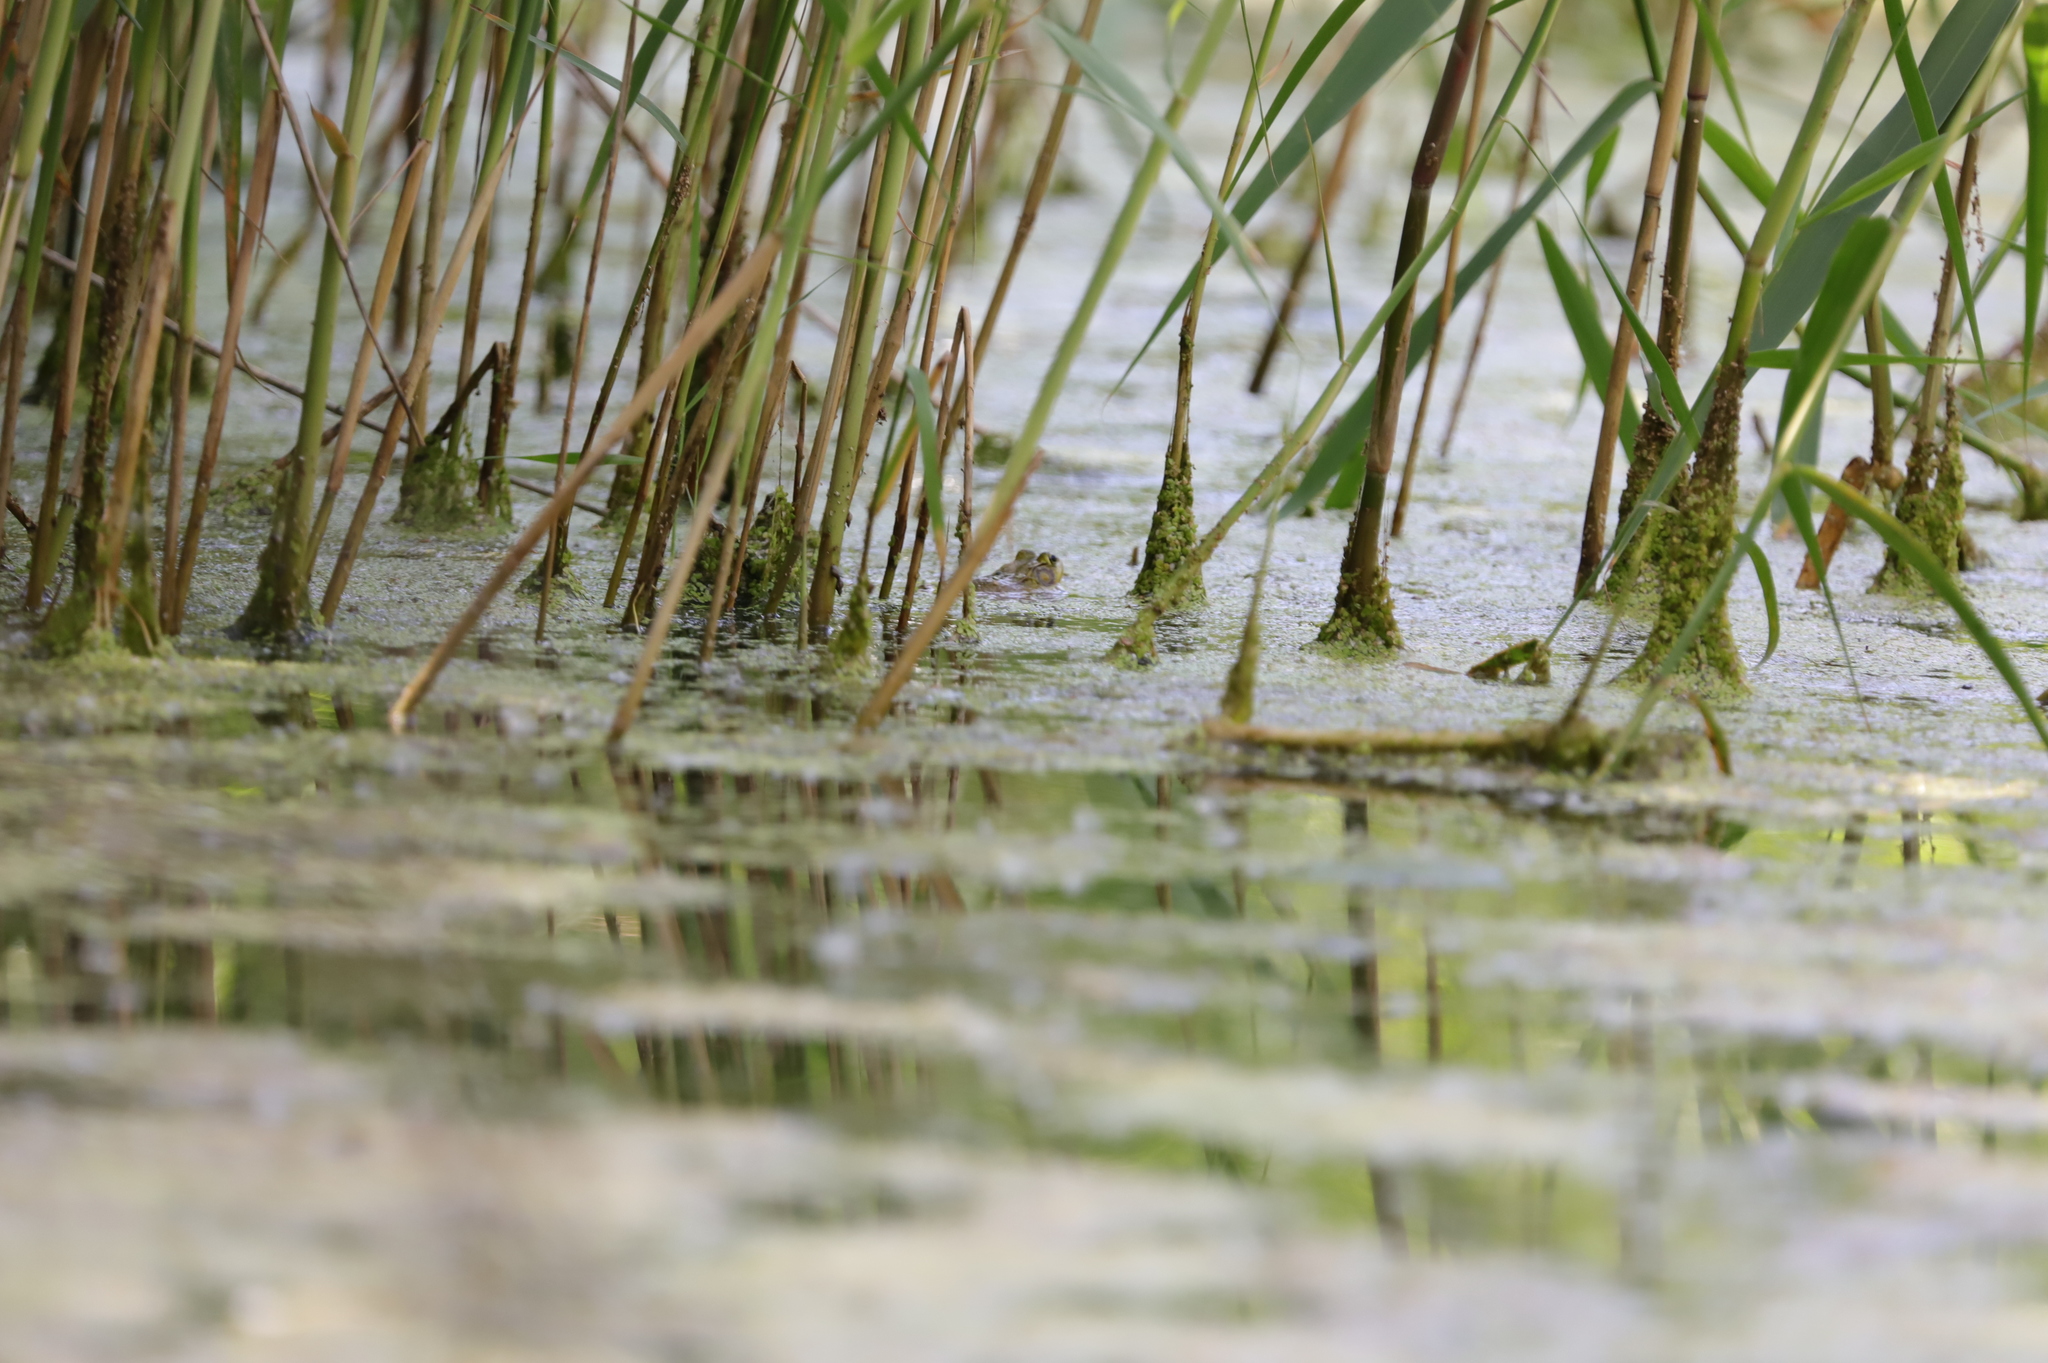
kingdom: Animalia
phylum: Chordata
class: Amphibia
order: Anura
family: Ranidae
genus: Lithobates
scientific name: Lithobates clamitans
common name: Green frog
